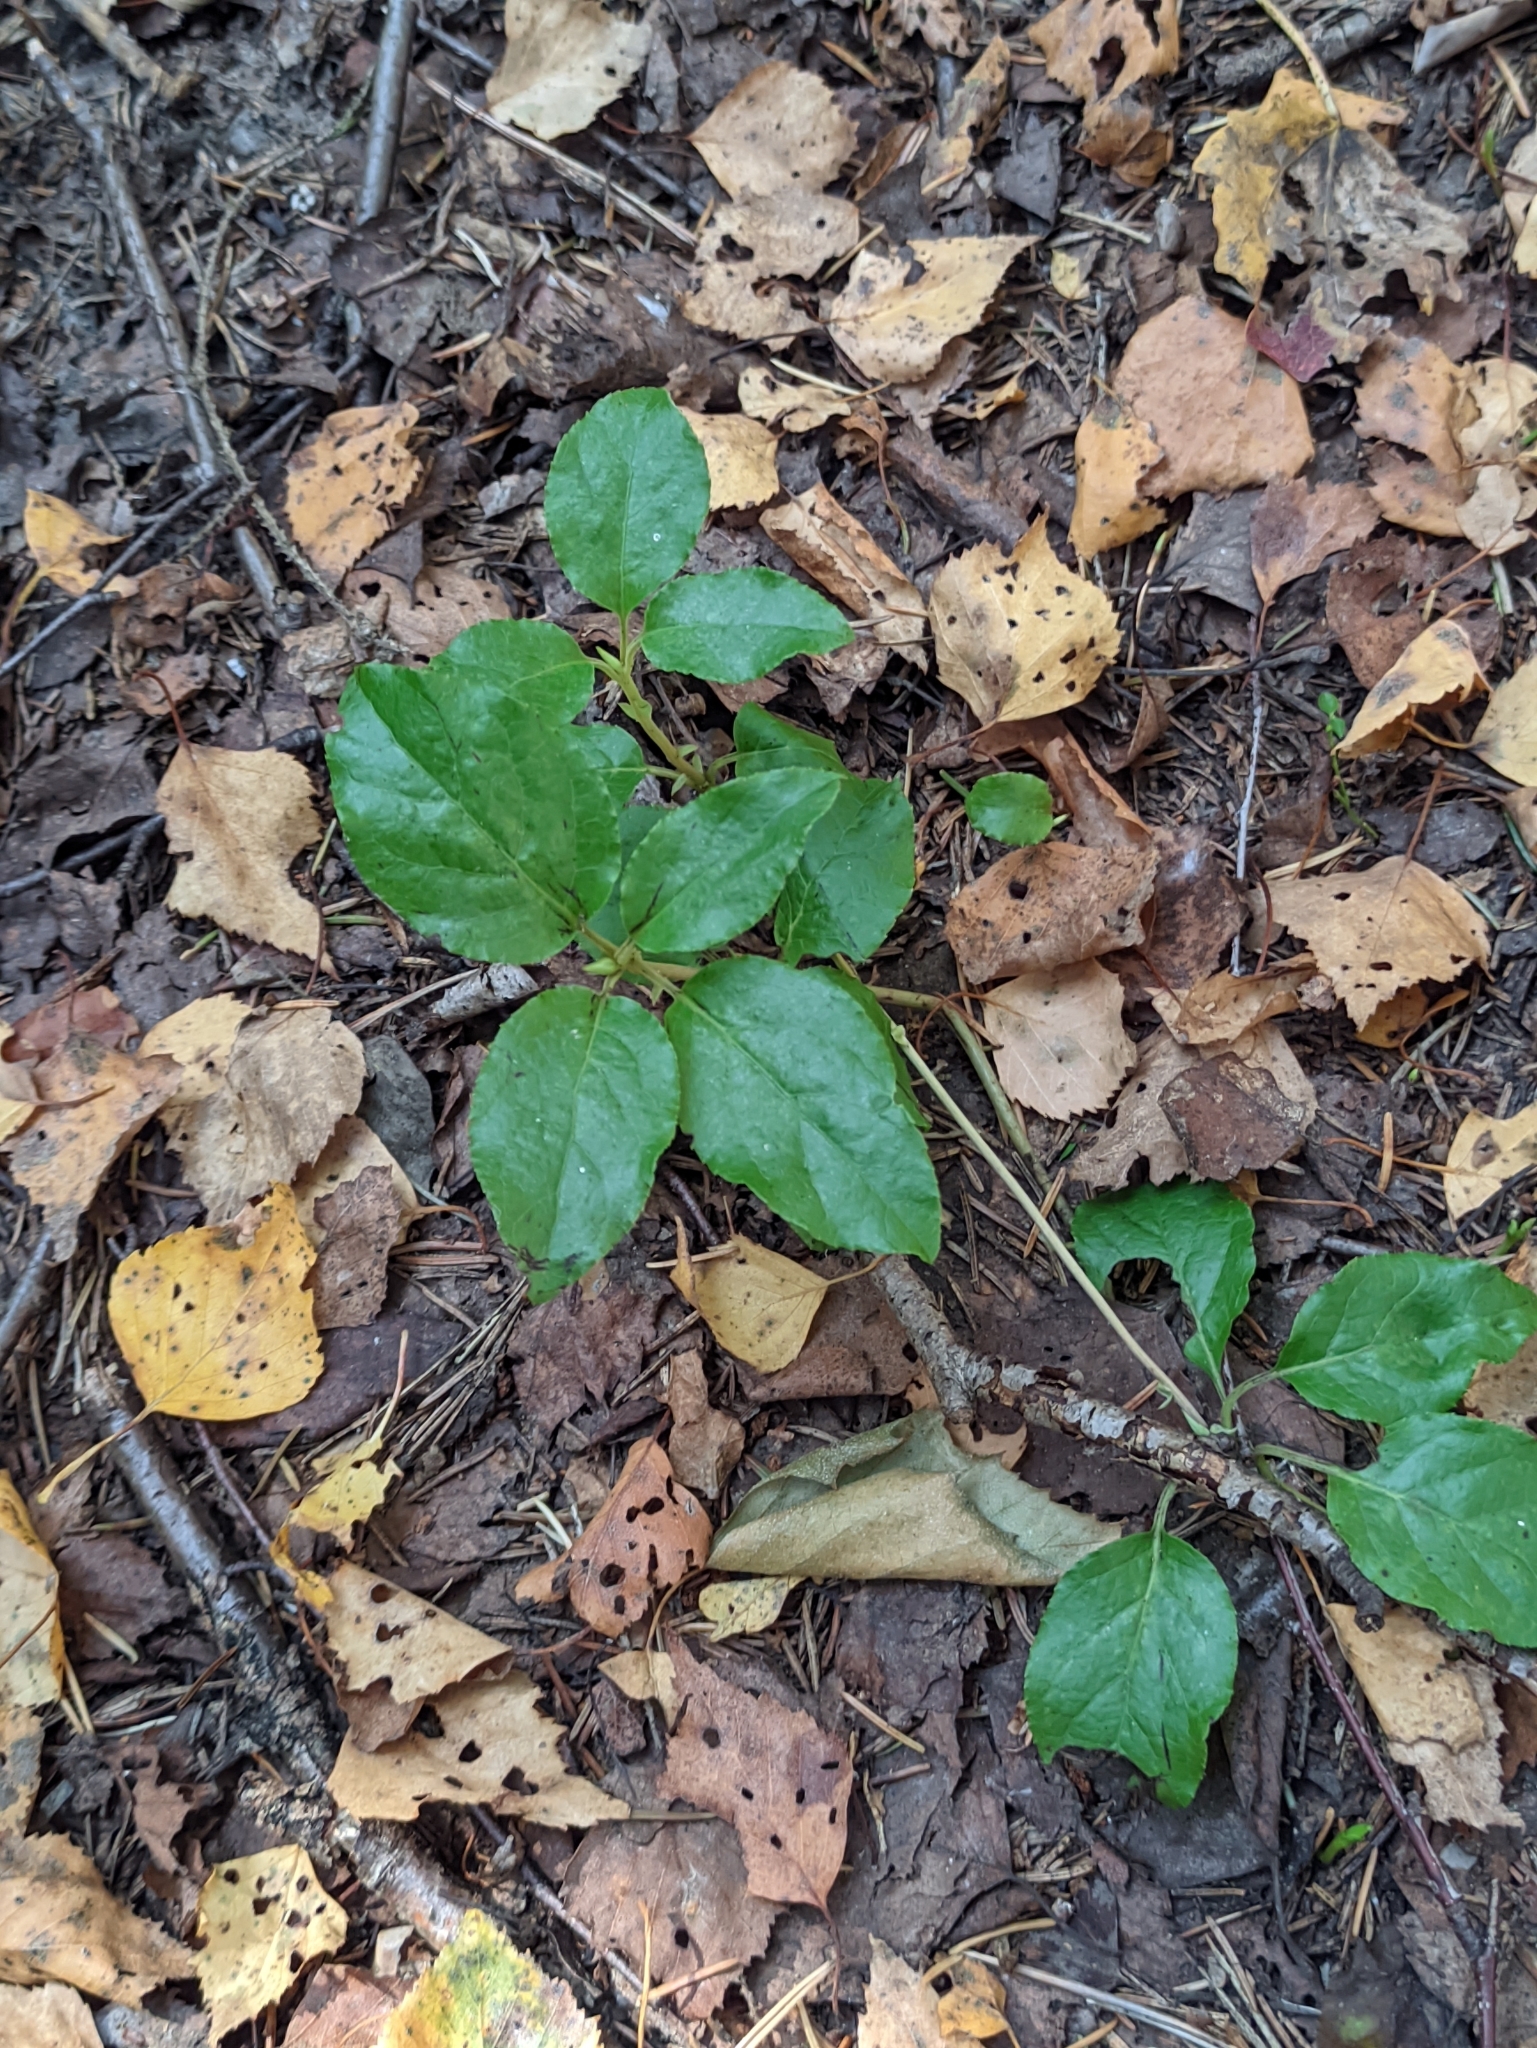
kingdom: Plantae
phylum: Tracheophyta
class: Magnoliopsida
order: Ericales
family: Ericaceae
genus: Orthilia
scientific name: Orthilia secunda
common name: One-sided orthilia
